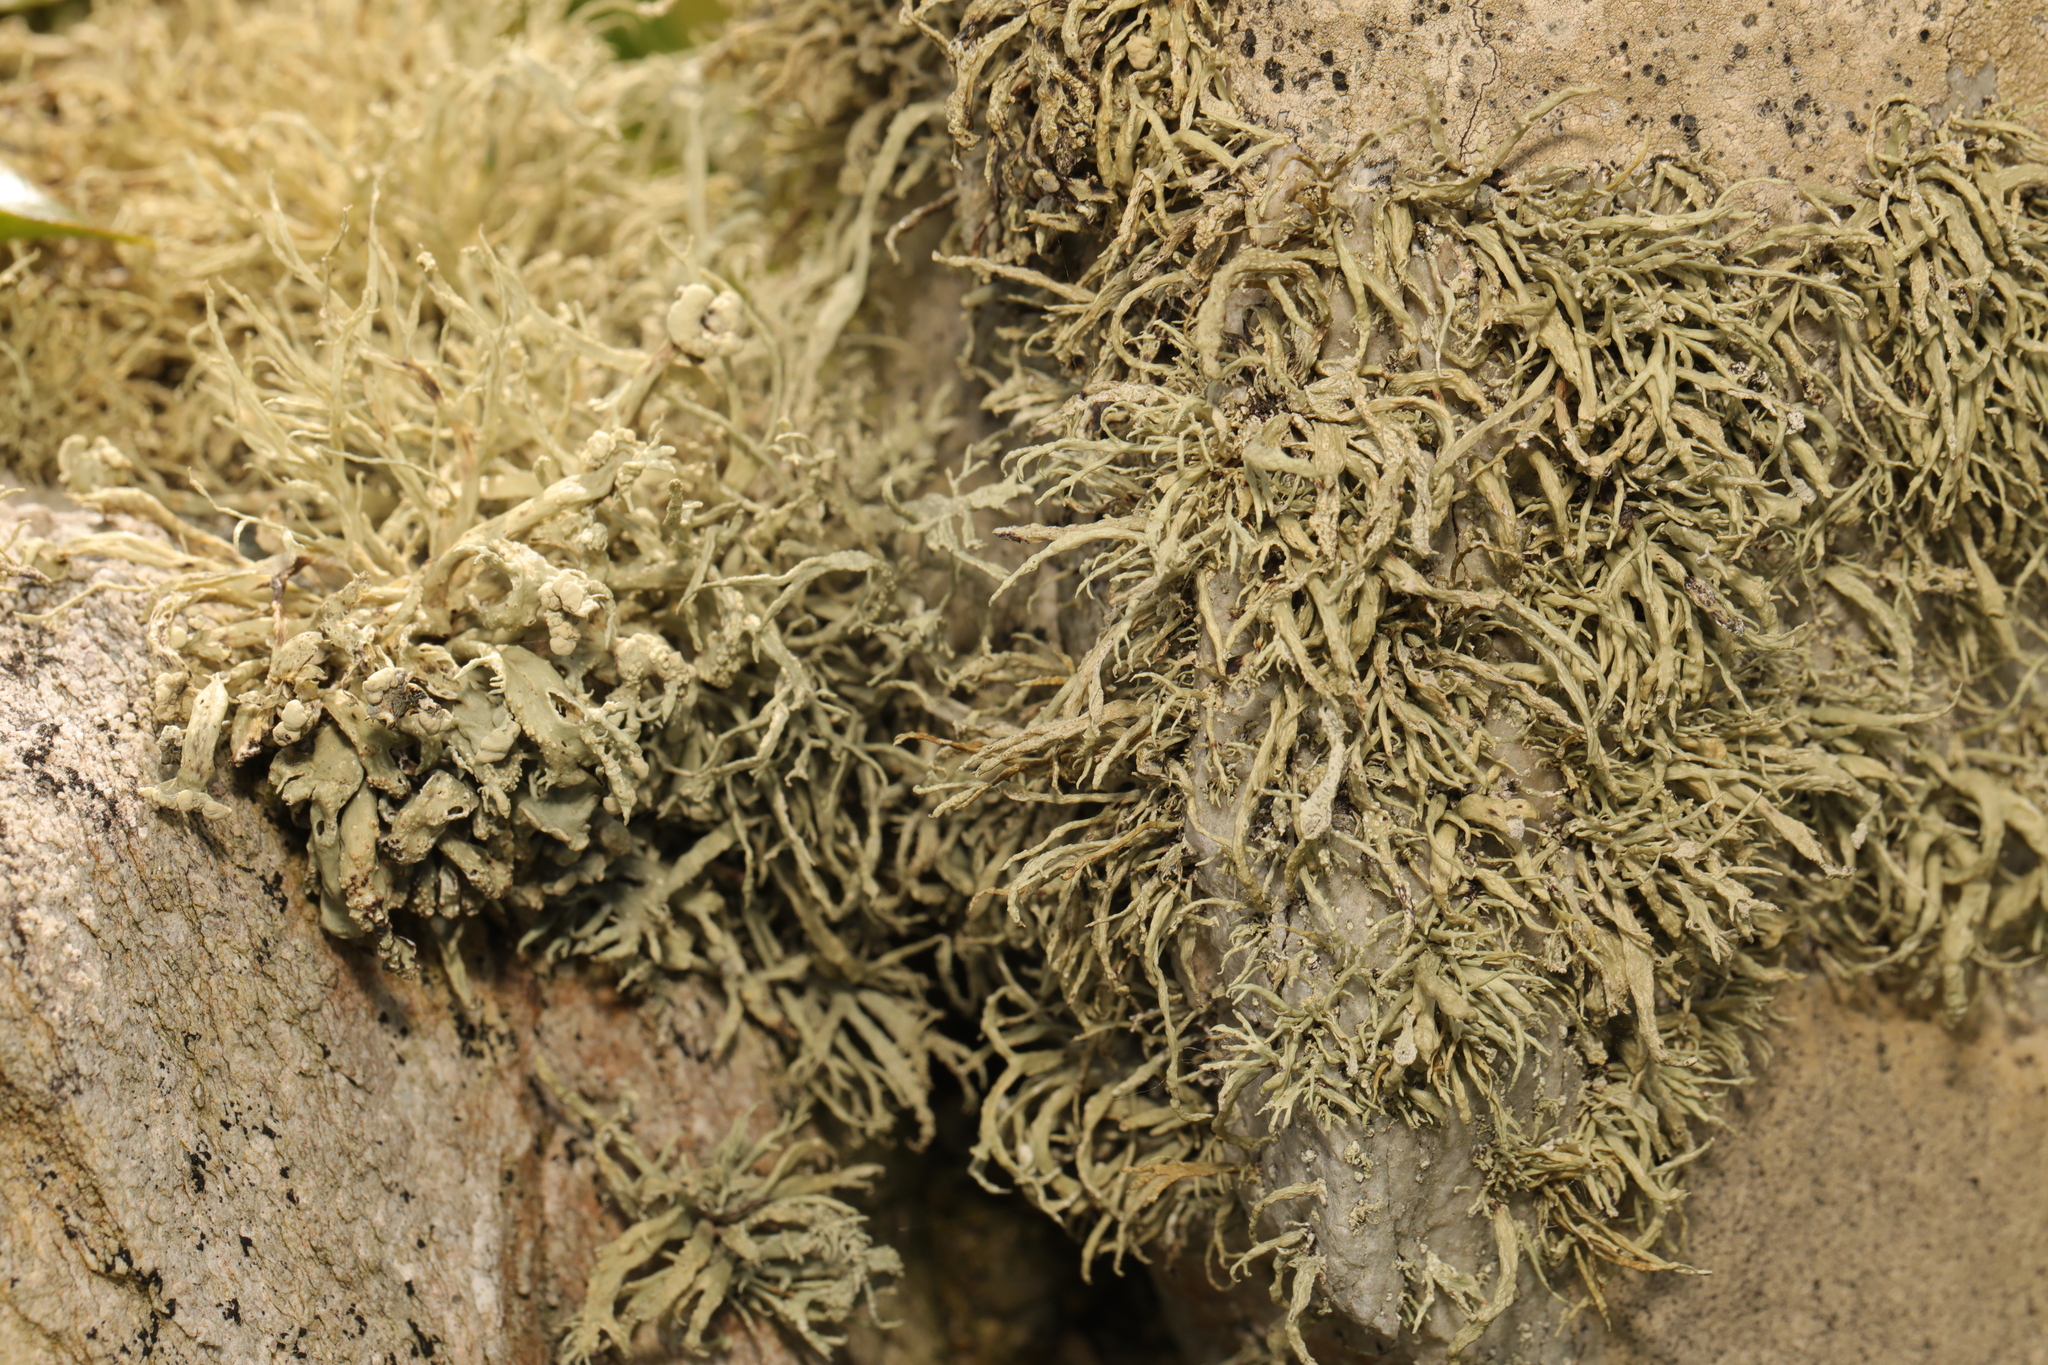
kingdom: Fungi
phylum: Ascomycota
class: Lecanoromycetes
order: Lecanorales
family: Ramalinaceae
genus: Ramalina
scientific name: Ramalina siliquosa
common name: Sea ivory
